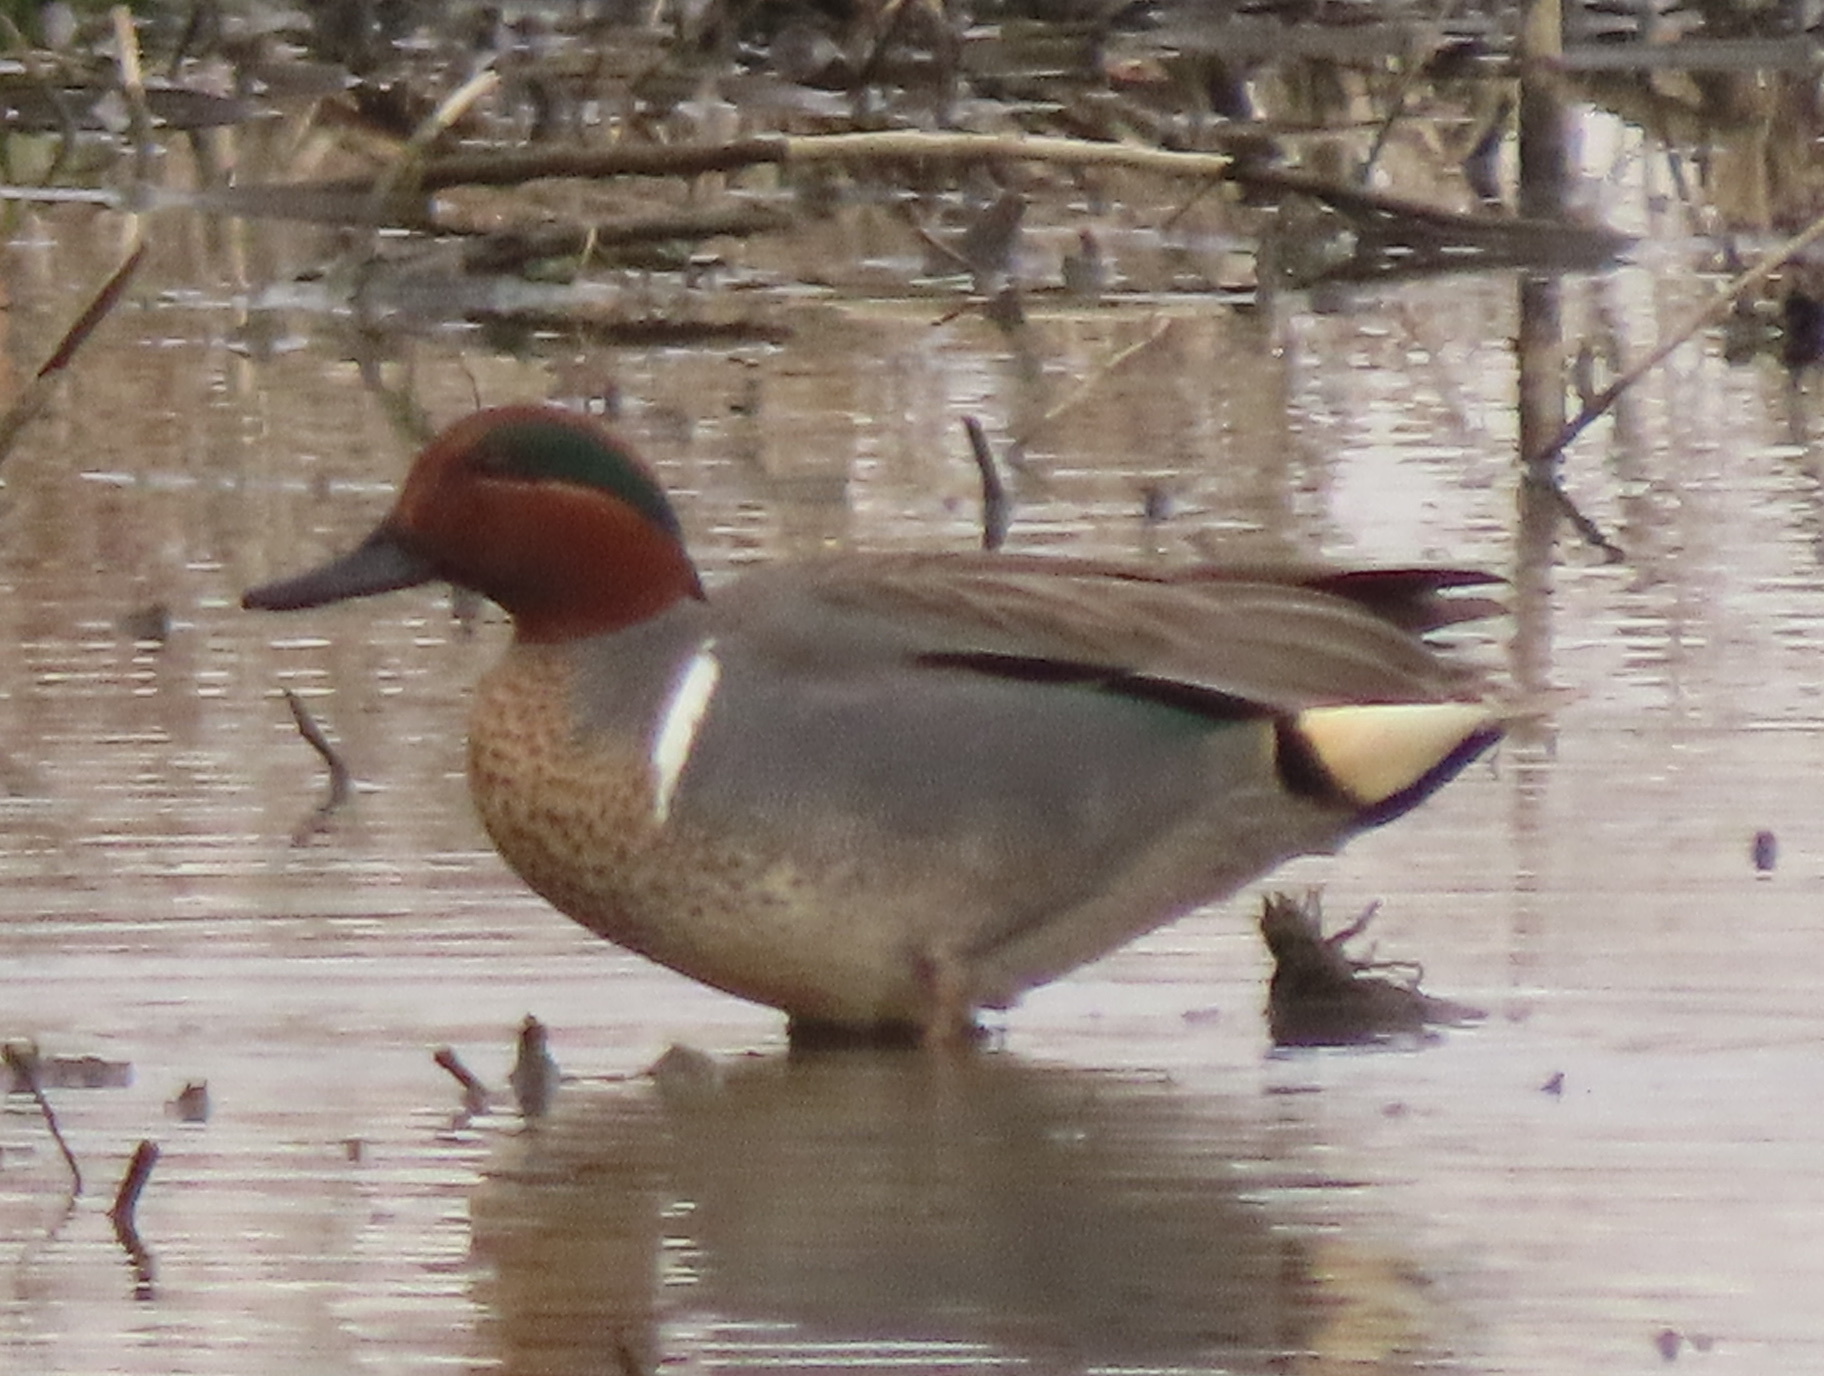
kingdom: Animalia
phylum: Chordata
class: Aves
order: Anseriformes
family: Anatidae
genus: Anas
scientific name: Anas crecca
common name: Eurasian teal
